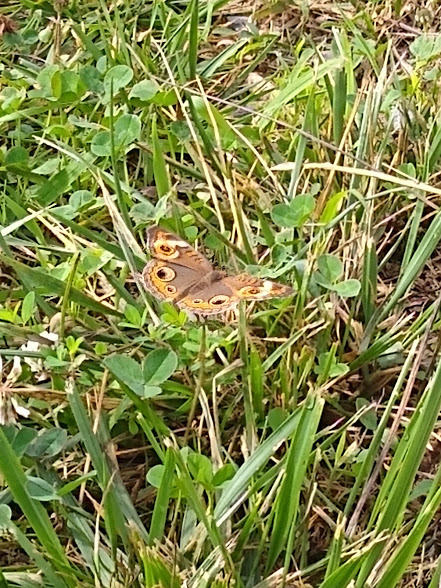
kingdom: Animalia
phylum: Arthropoda
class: Insecta
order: Lepidoptera
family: Nymphalidae
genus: Junonia
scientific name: Junonia coenia
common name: Common buckeye
